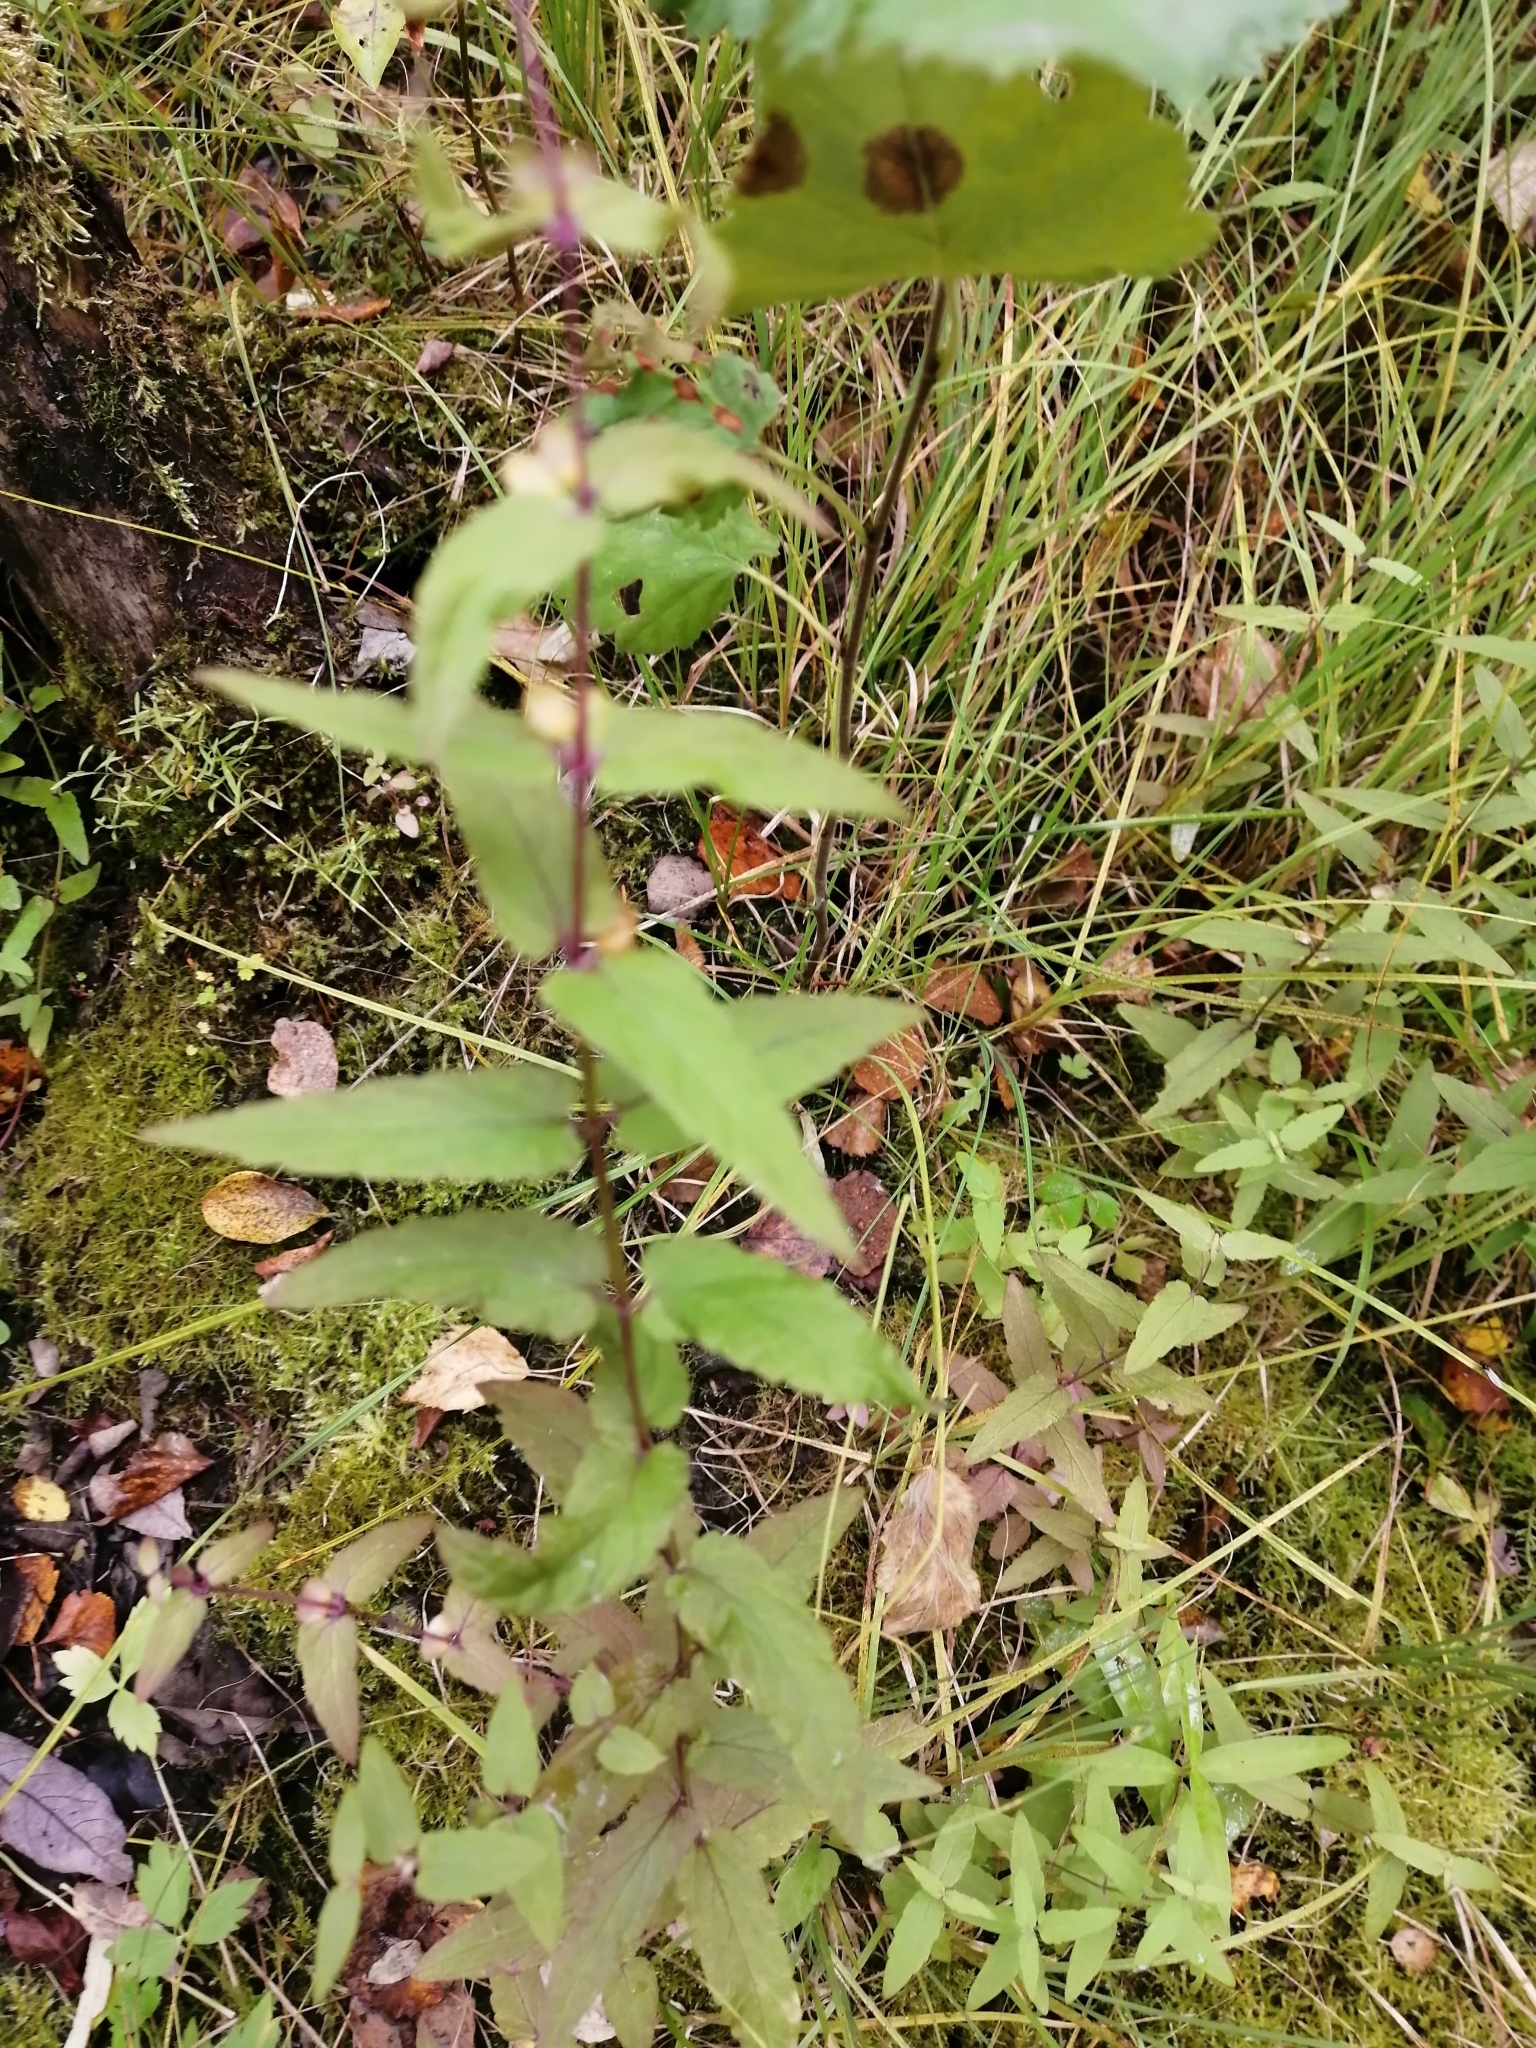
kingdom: Plantae
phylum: Tracheophyta
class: Magnoliopsida
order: Lamiales
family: Lamiaceae
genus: Scutellaria
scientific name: Scutellaria galericulata
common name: Skullcap
